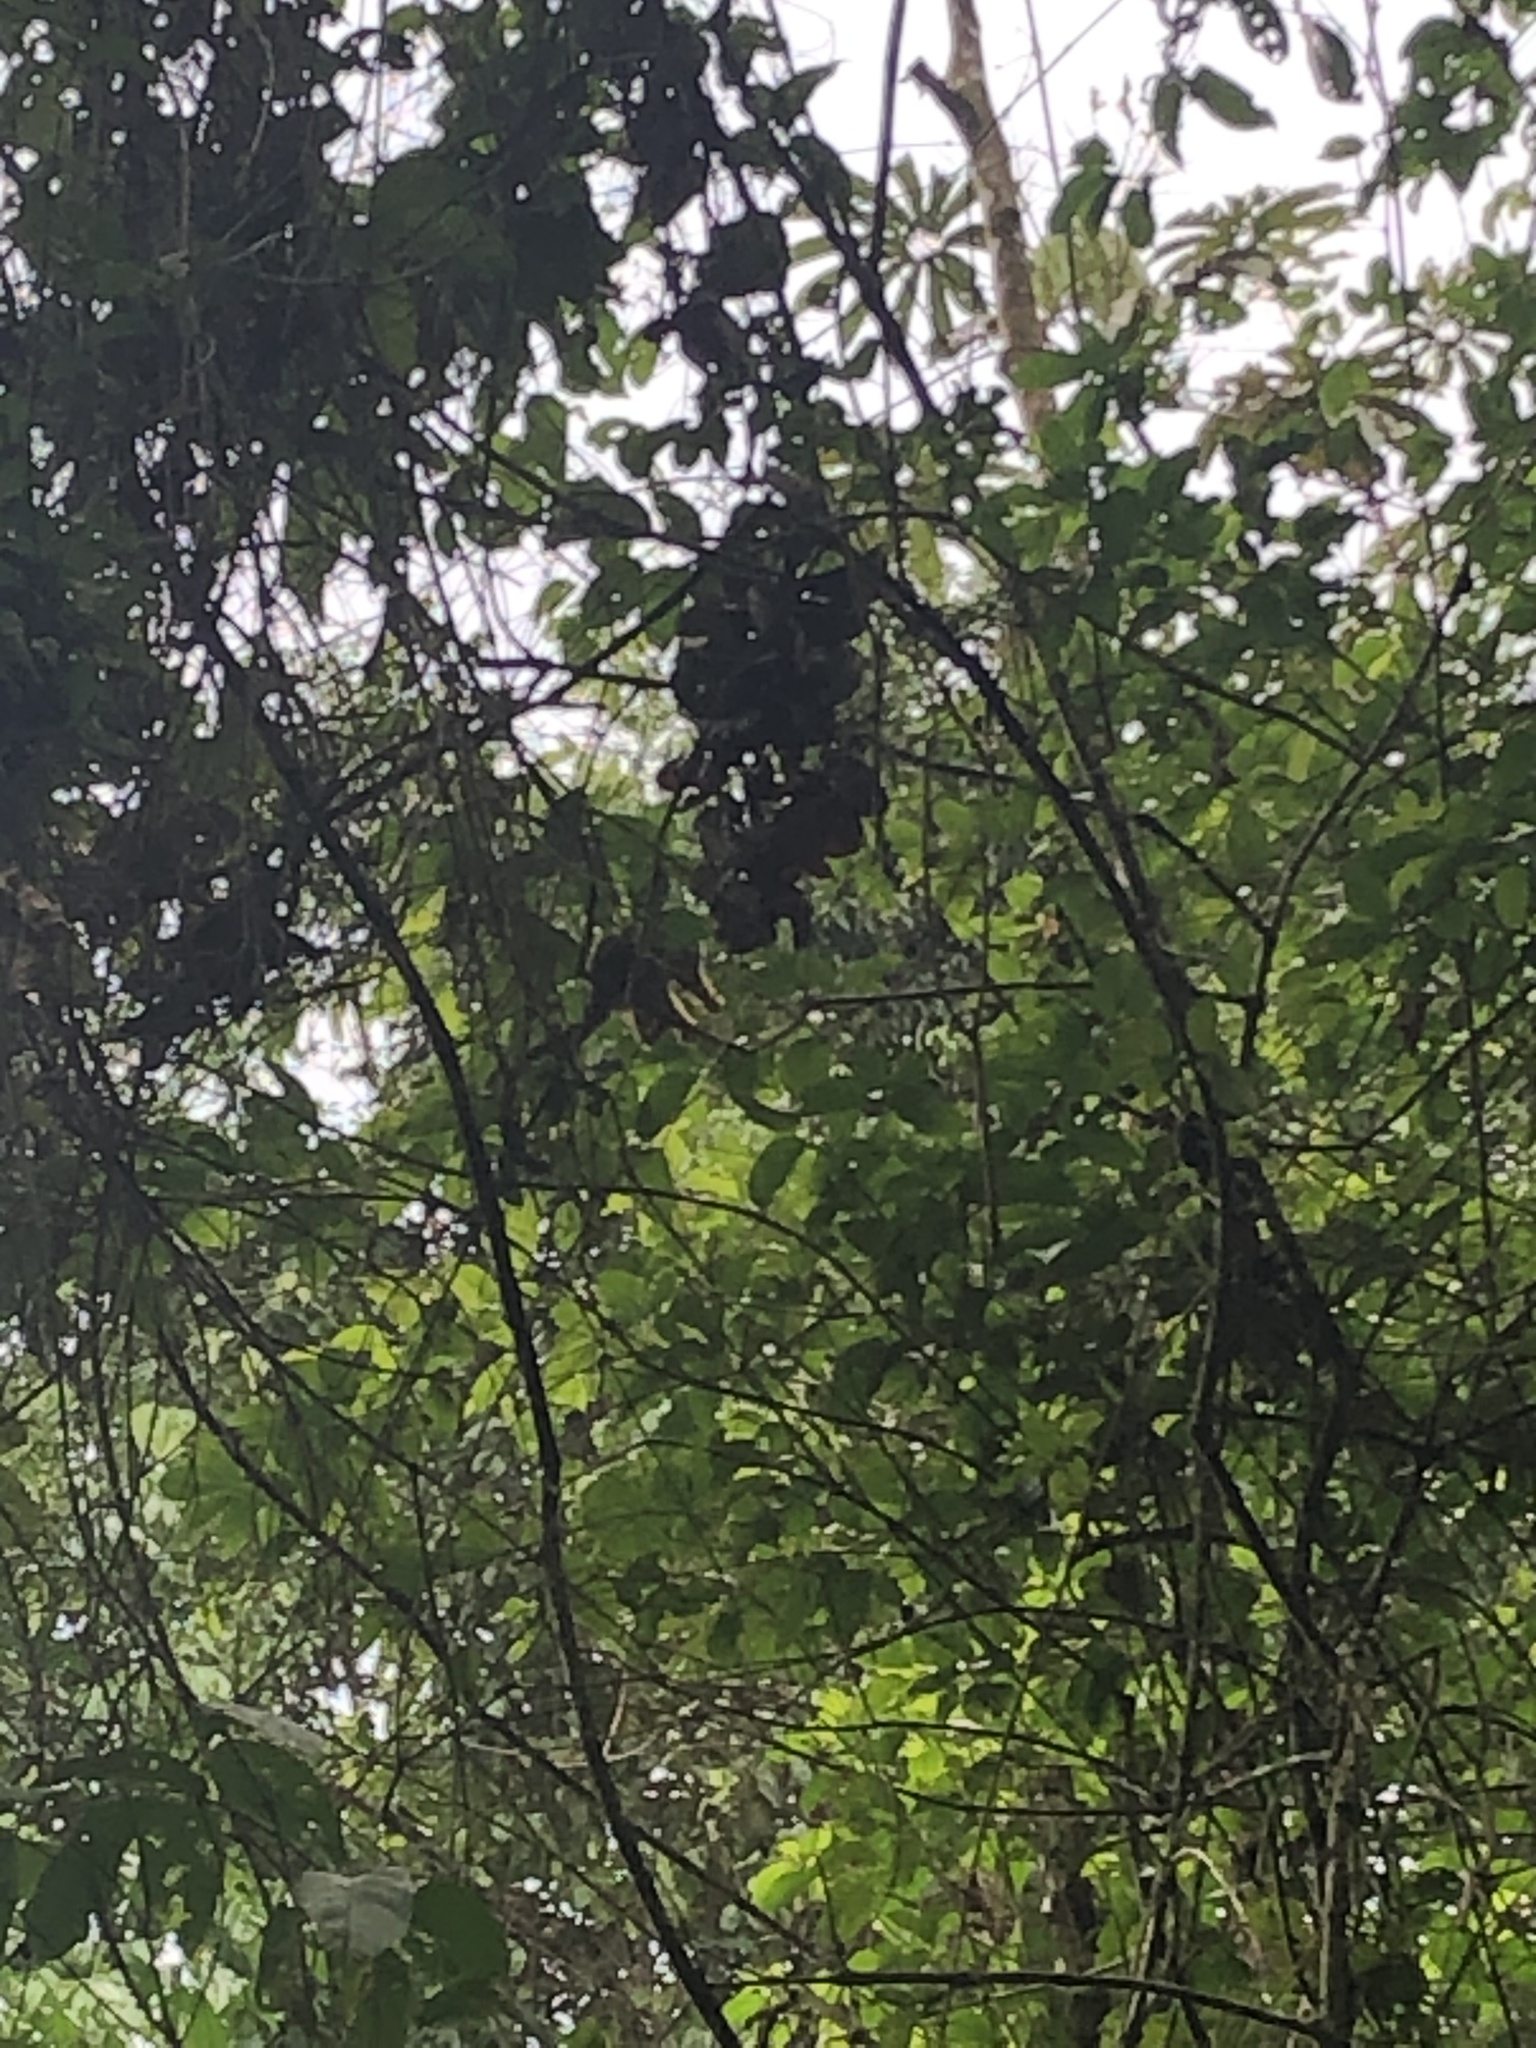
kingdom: Animalia
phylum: Chordata
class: Mammalia
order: Primates
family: Cebidae
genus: Sapajus
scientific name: Sapajus apella
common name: Tufted capuchin
